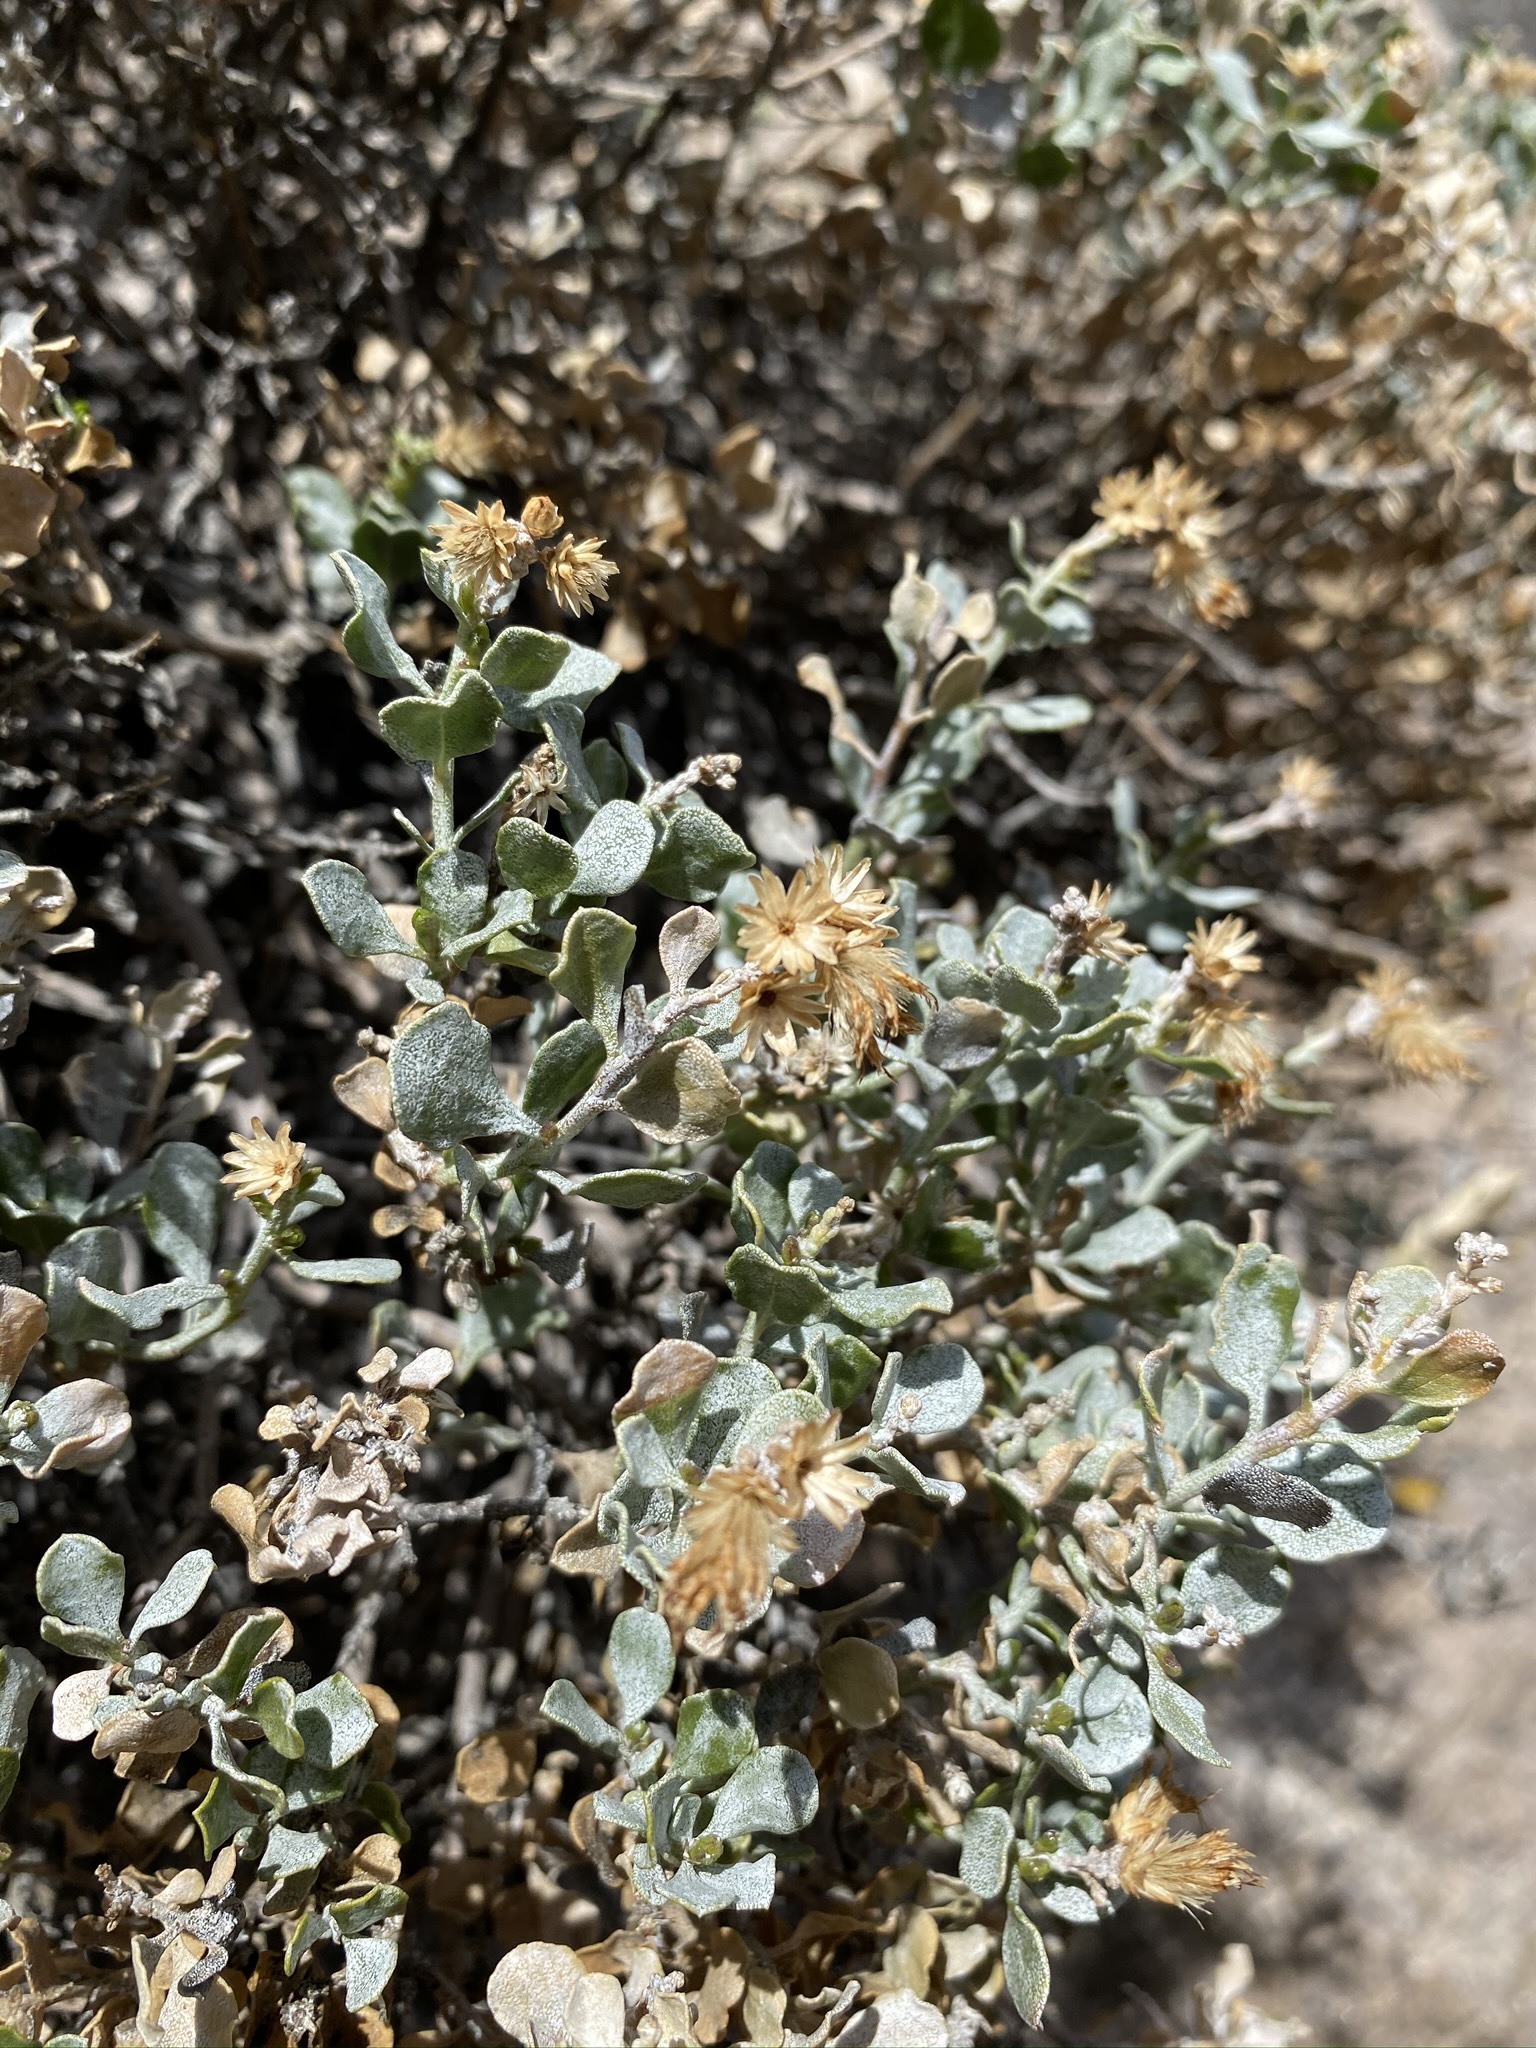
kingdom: Plantae
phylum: Tracheophyta
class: Magnoliopsida
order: Asterales
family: Asteraceae
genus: Ericameria
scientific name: Ericameria cuneata
